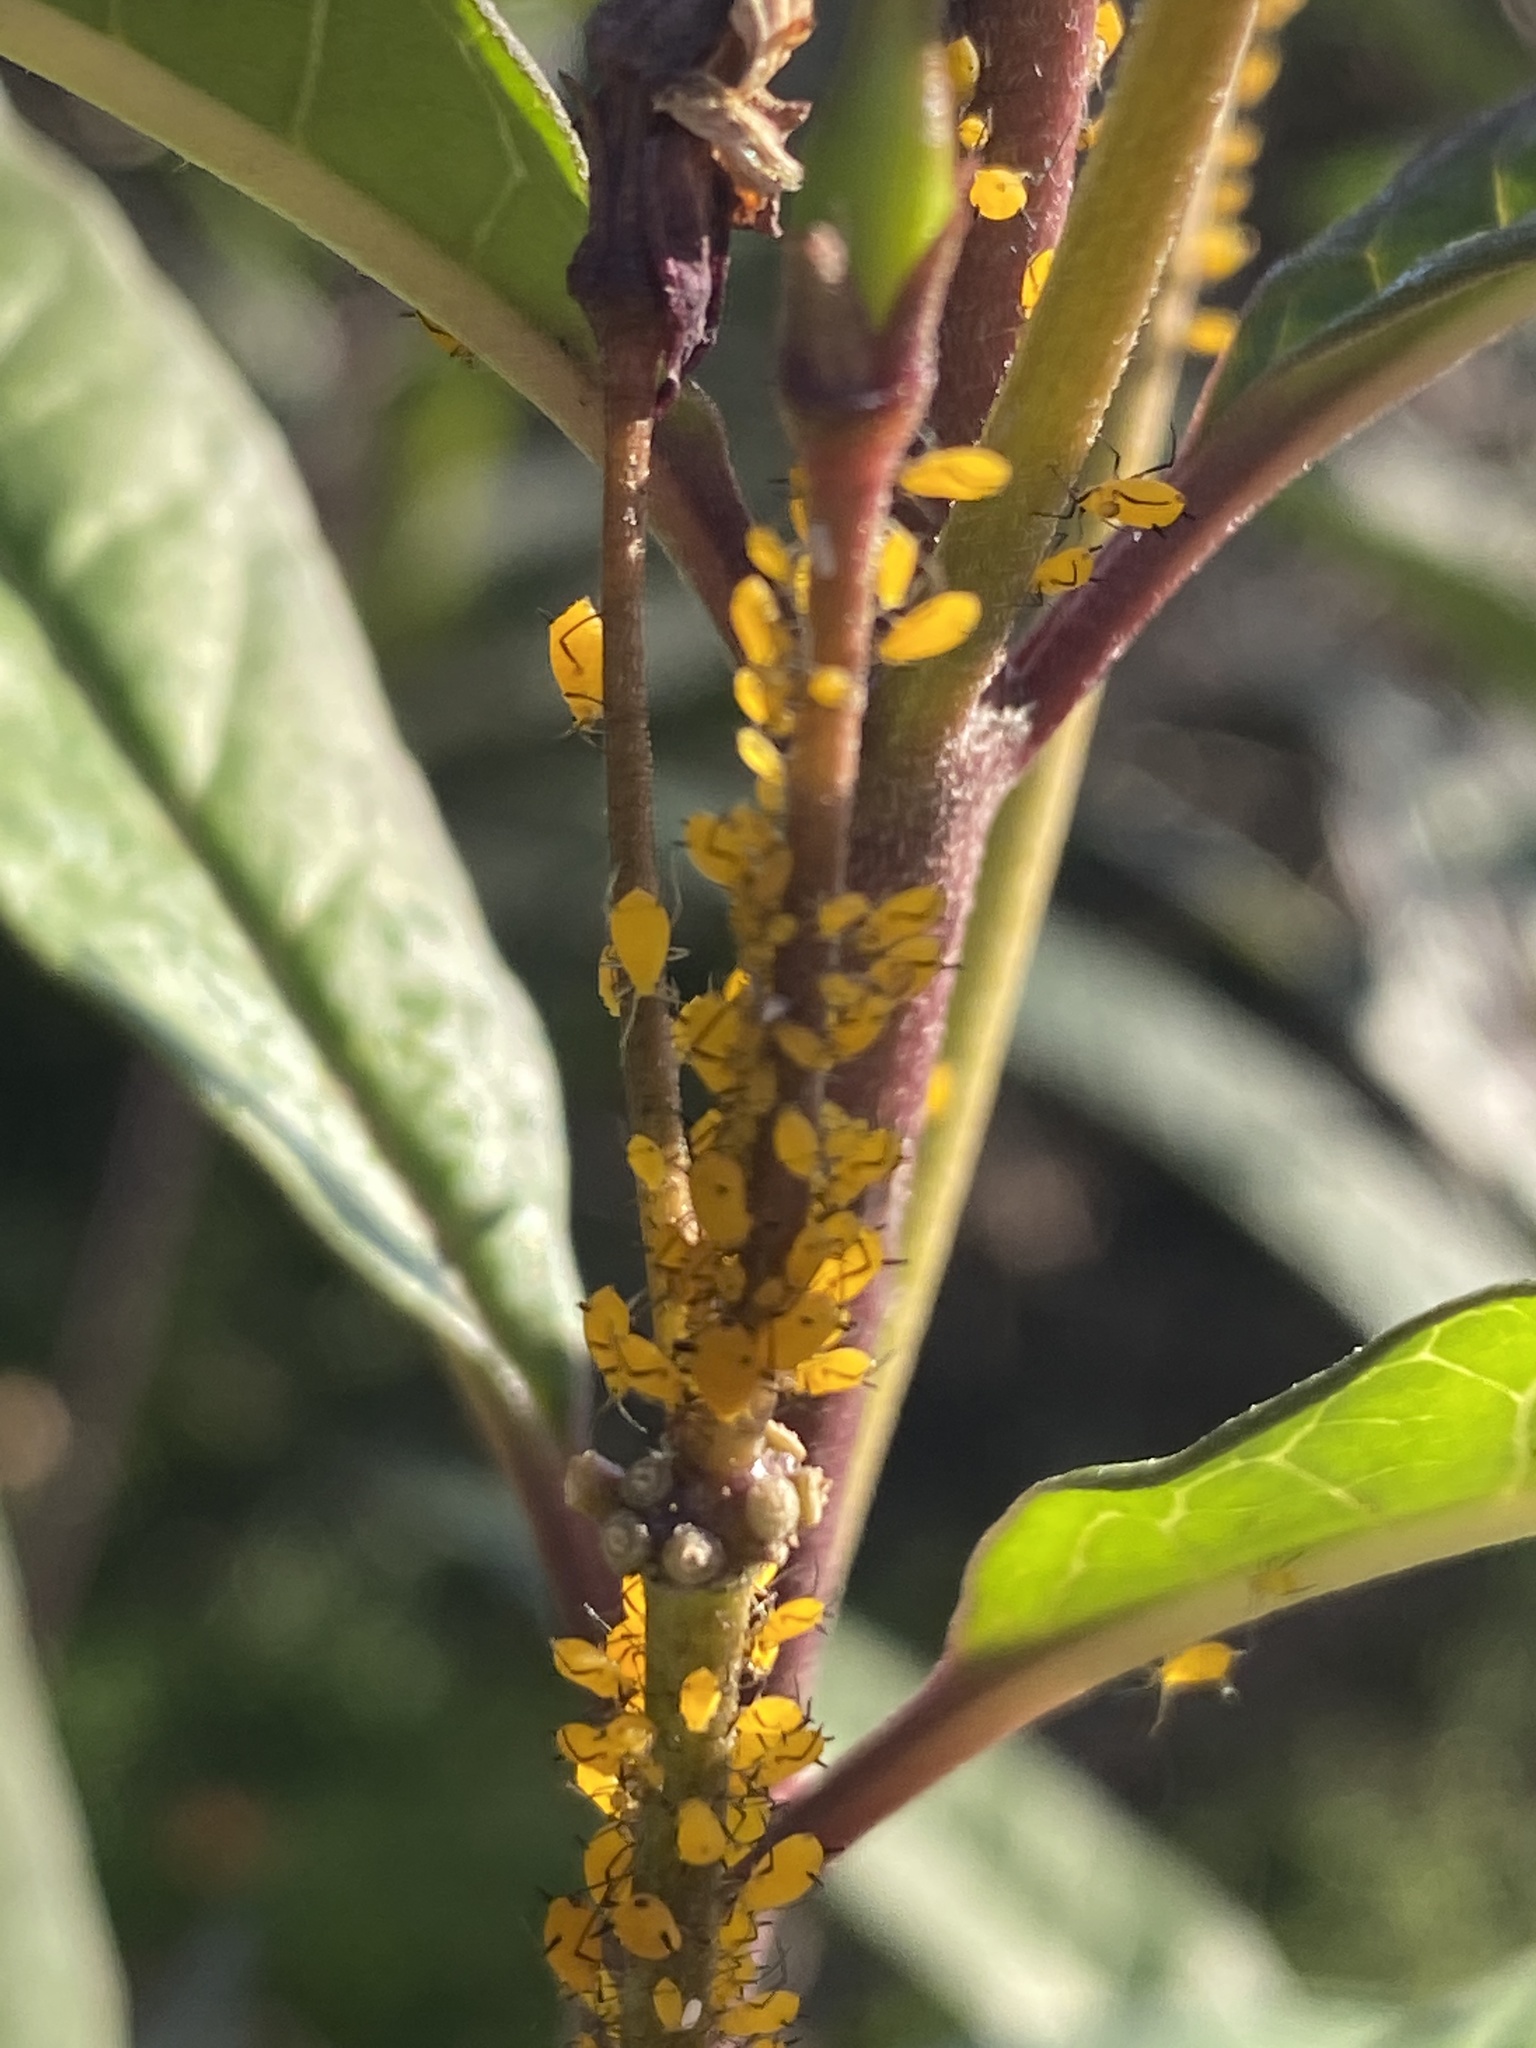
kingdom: Animalia
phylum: Arthropoda
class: Insecta
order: Hemiptera
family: Aphididae
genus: Aphis
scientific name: Aphis nerii
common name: Oleander aphid
